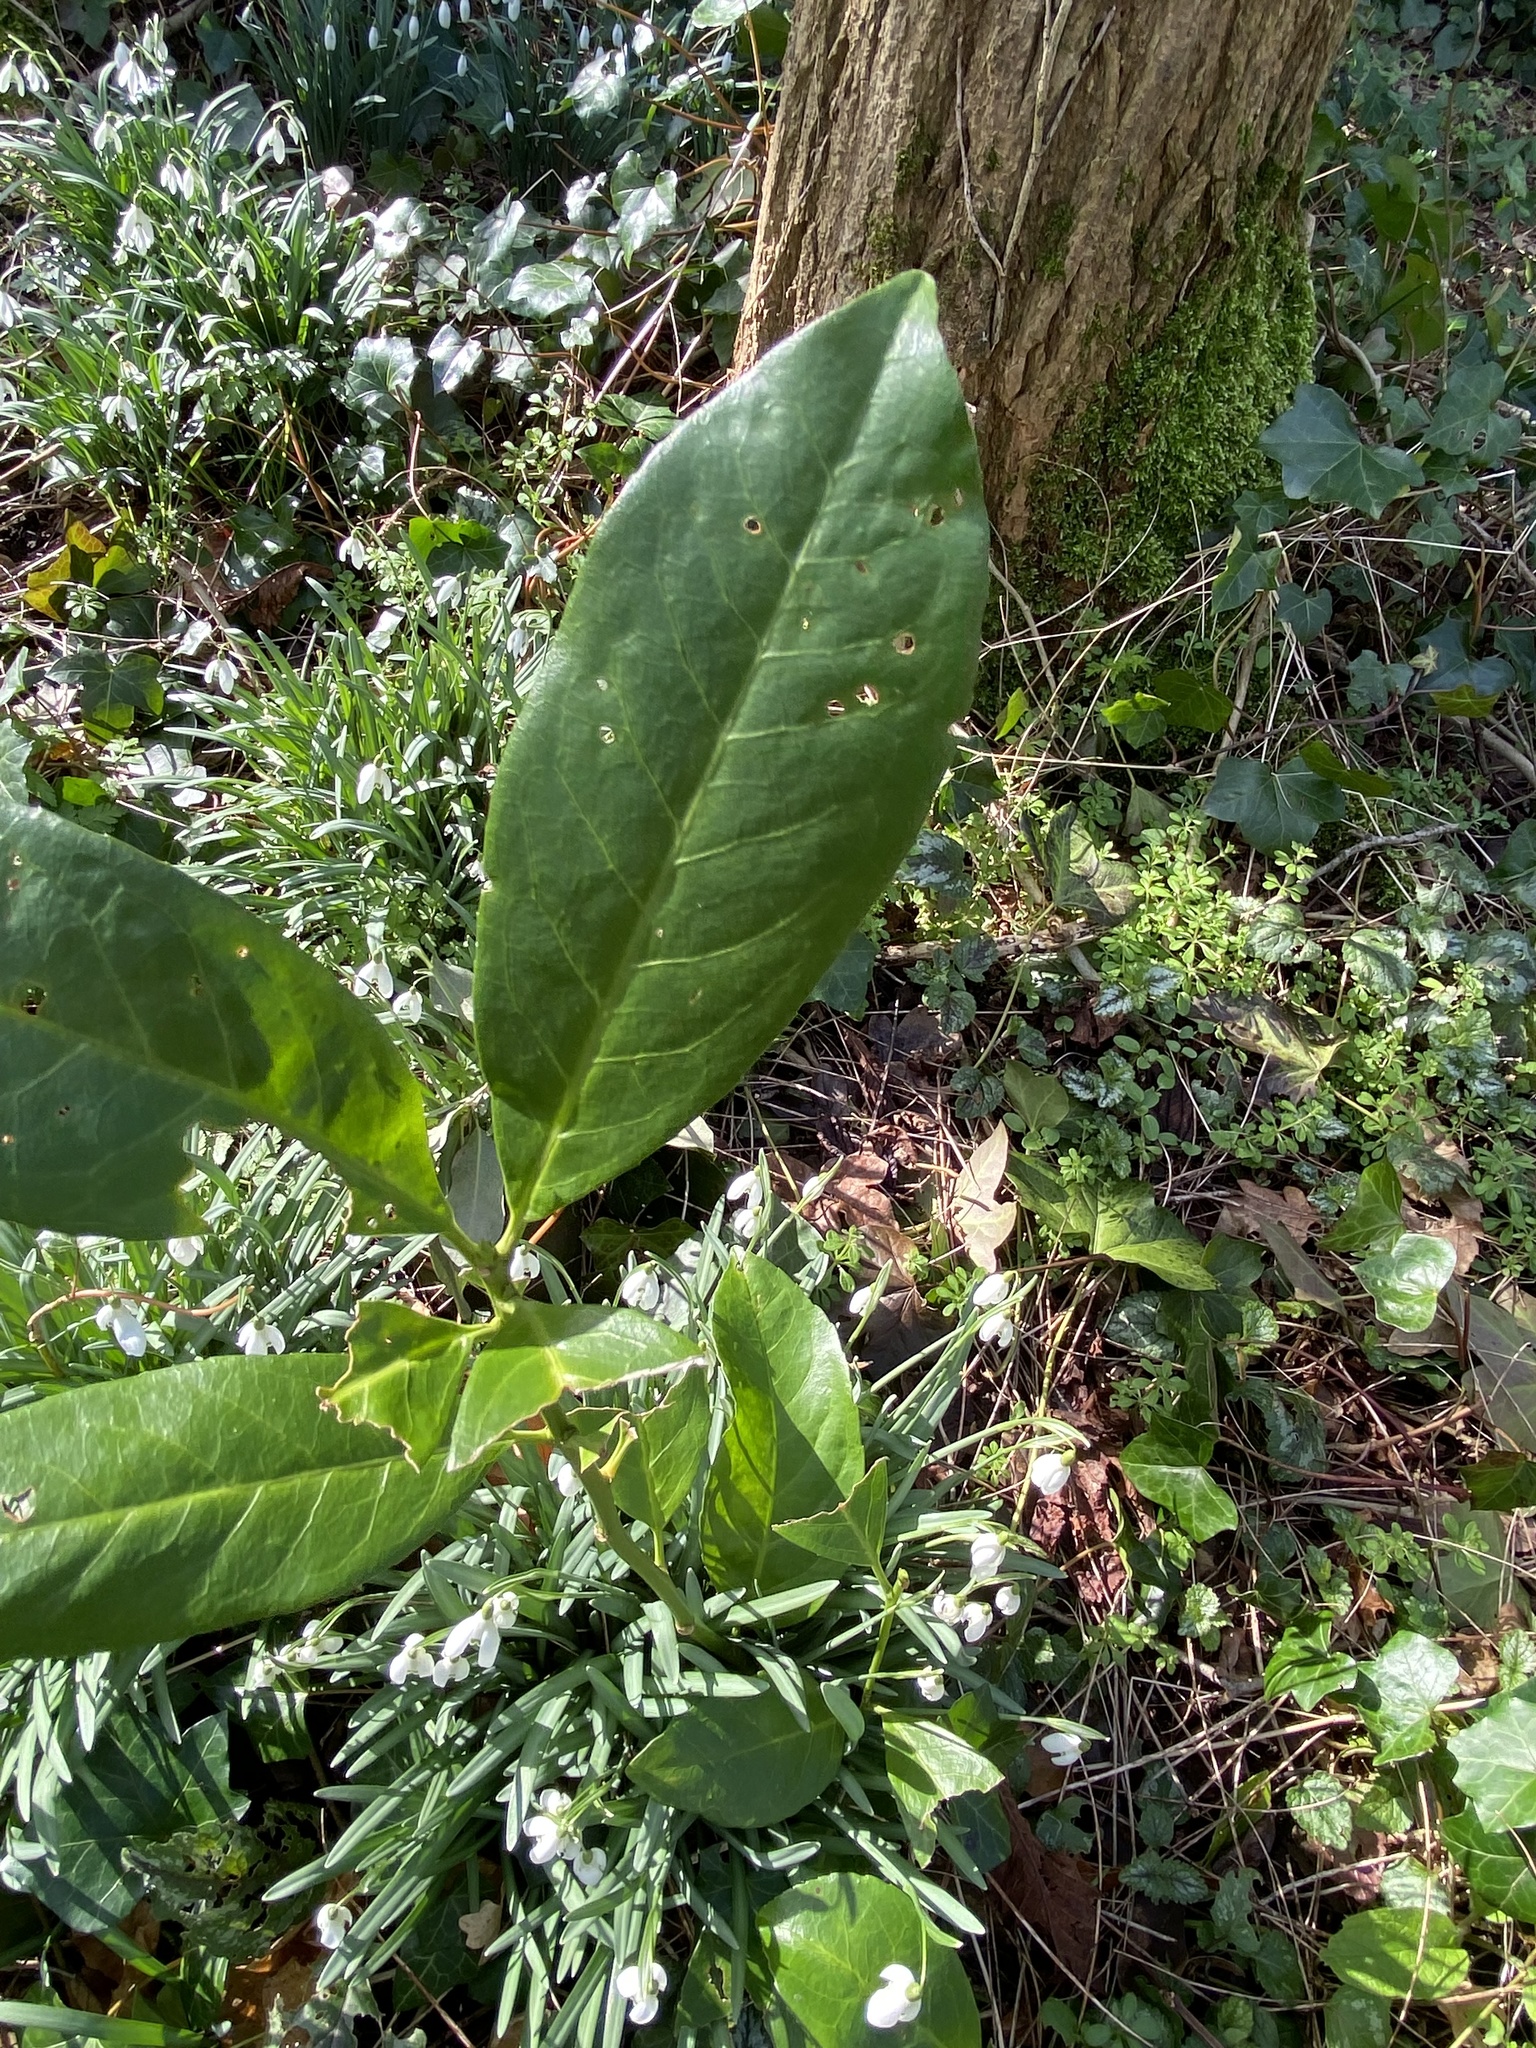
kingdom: Plantae
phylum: Tracheophyta
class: Magnoliopsida
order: Rosales
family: Rosaceae
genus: Prunus
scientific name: Prunus laurocerasus
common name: Cherry laurel
